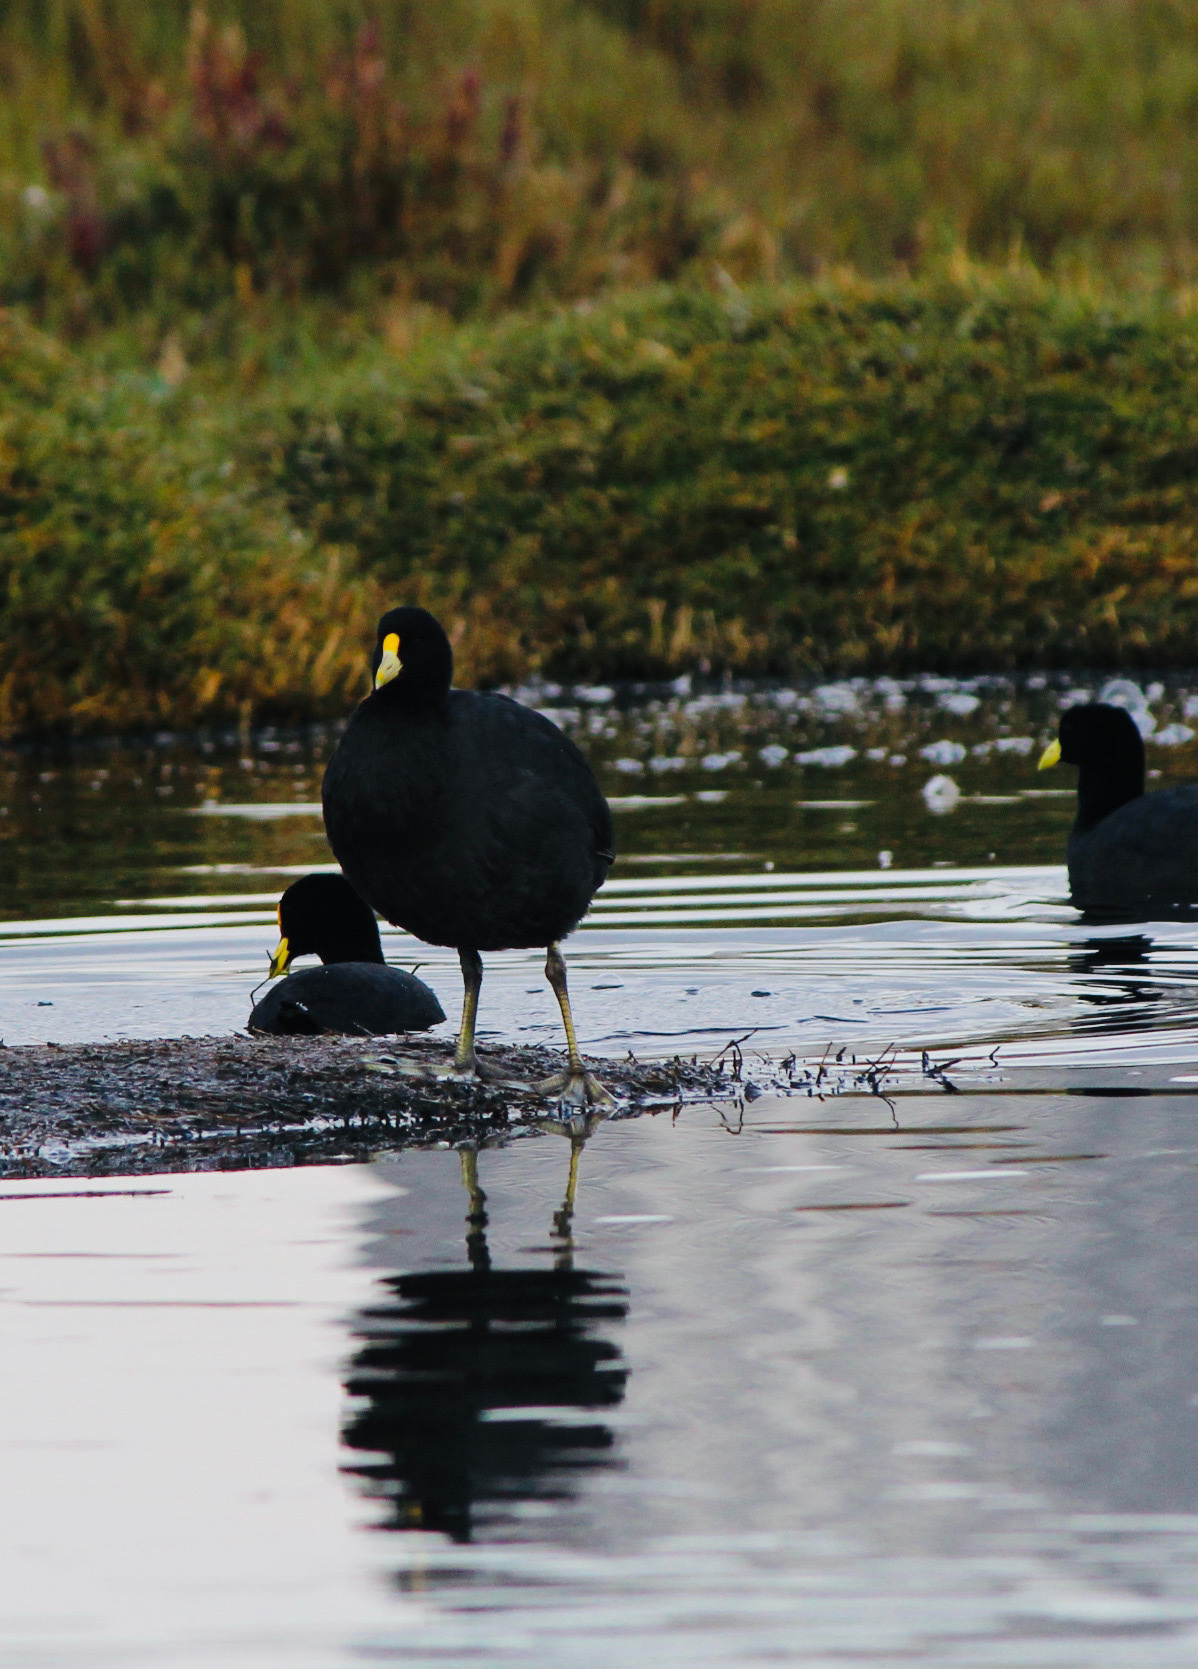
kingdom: Animalia
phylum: Chordata
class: Aves
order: Gruiformes
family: Rallidae
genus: Fulica
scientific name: Fulica leucoptera
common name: White-winged coot
